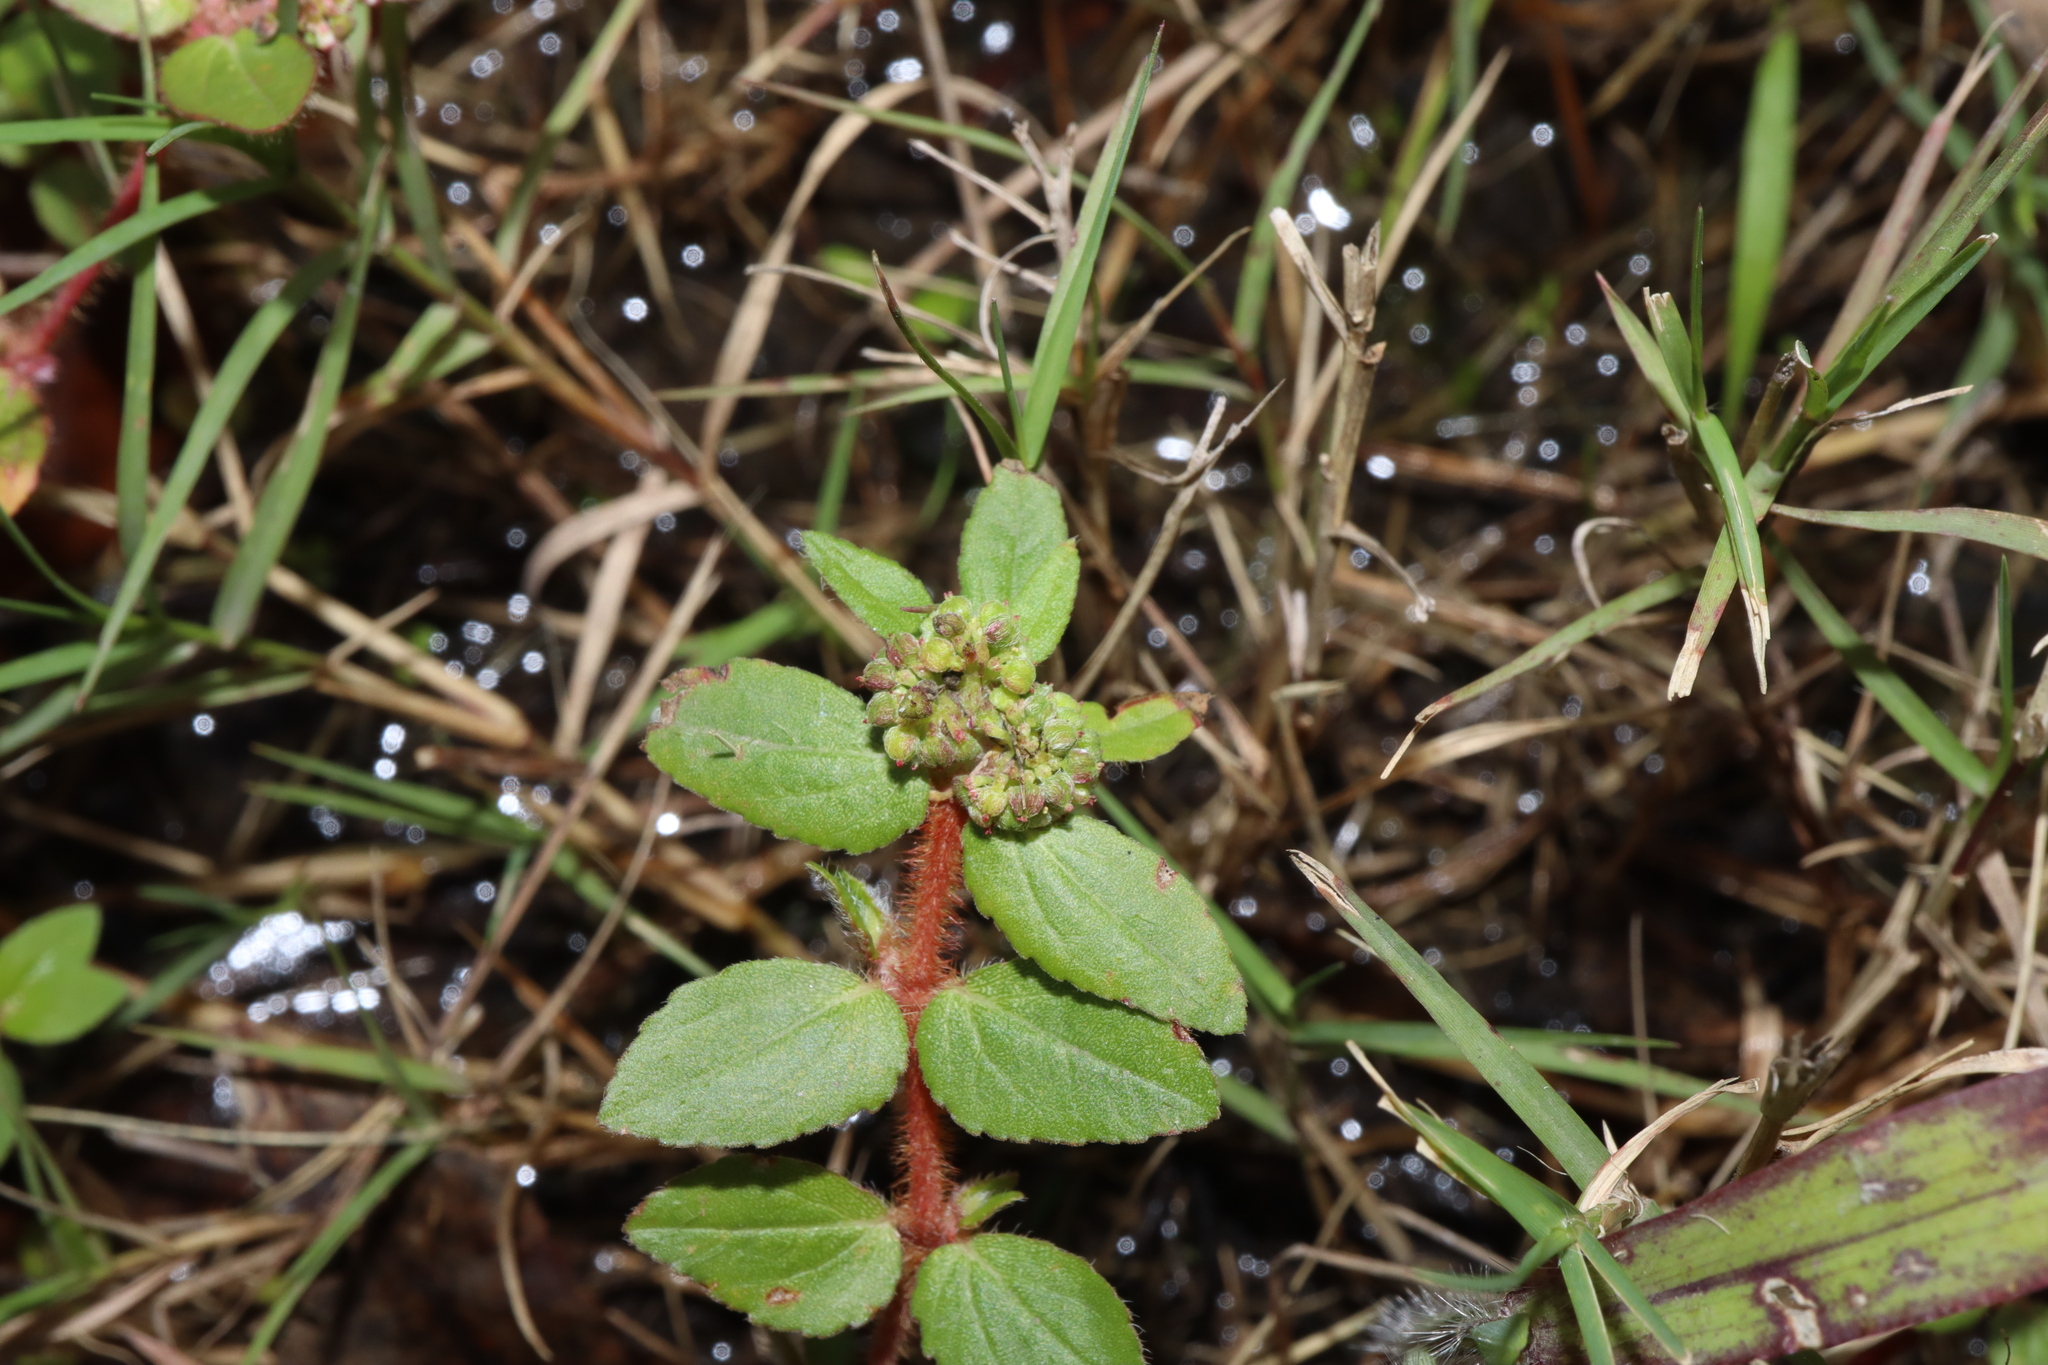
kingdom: Plantae
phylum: Tracheophyta
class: Magnoliopsida
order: Malpighiales
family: Euphorbiaceae
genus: Euphorbia
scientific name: Euphorbia ophthalmica
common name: Florida hammock sandmat
